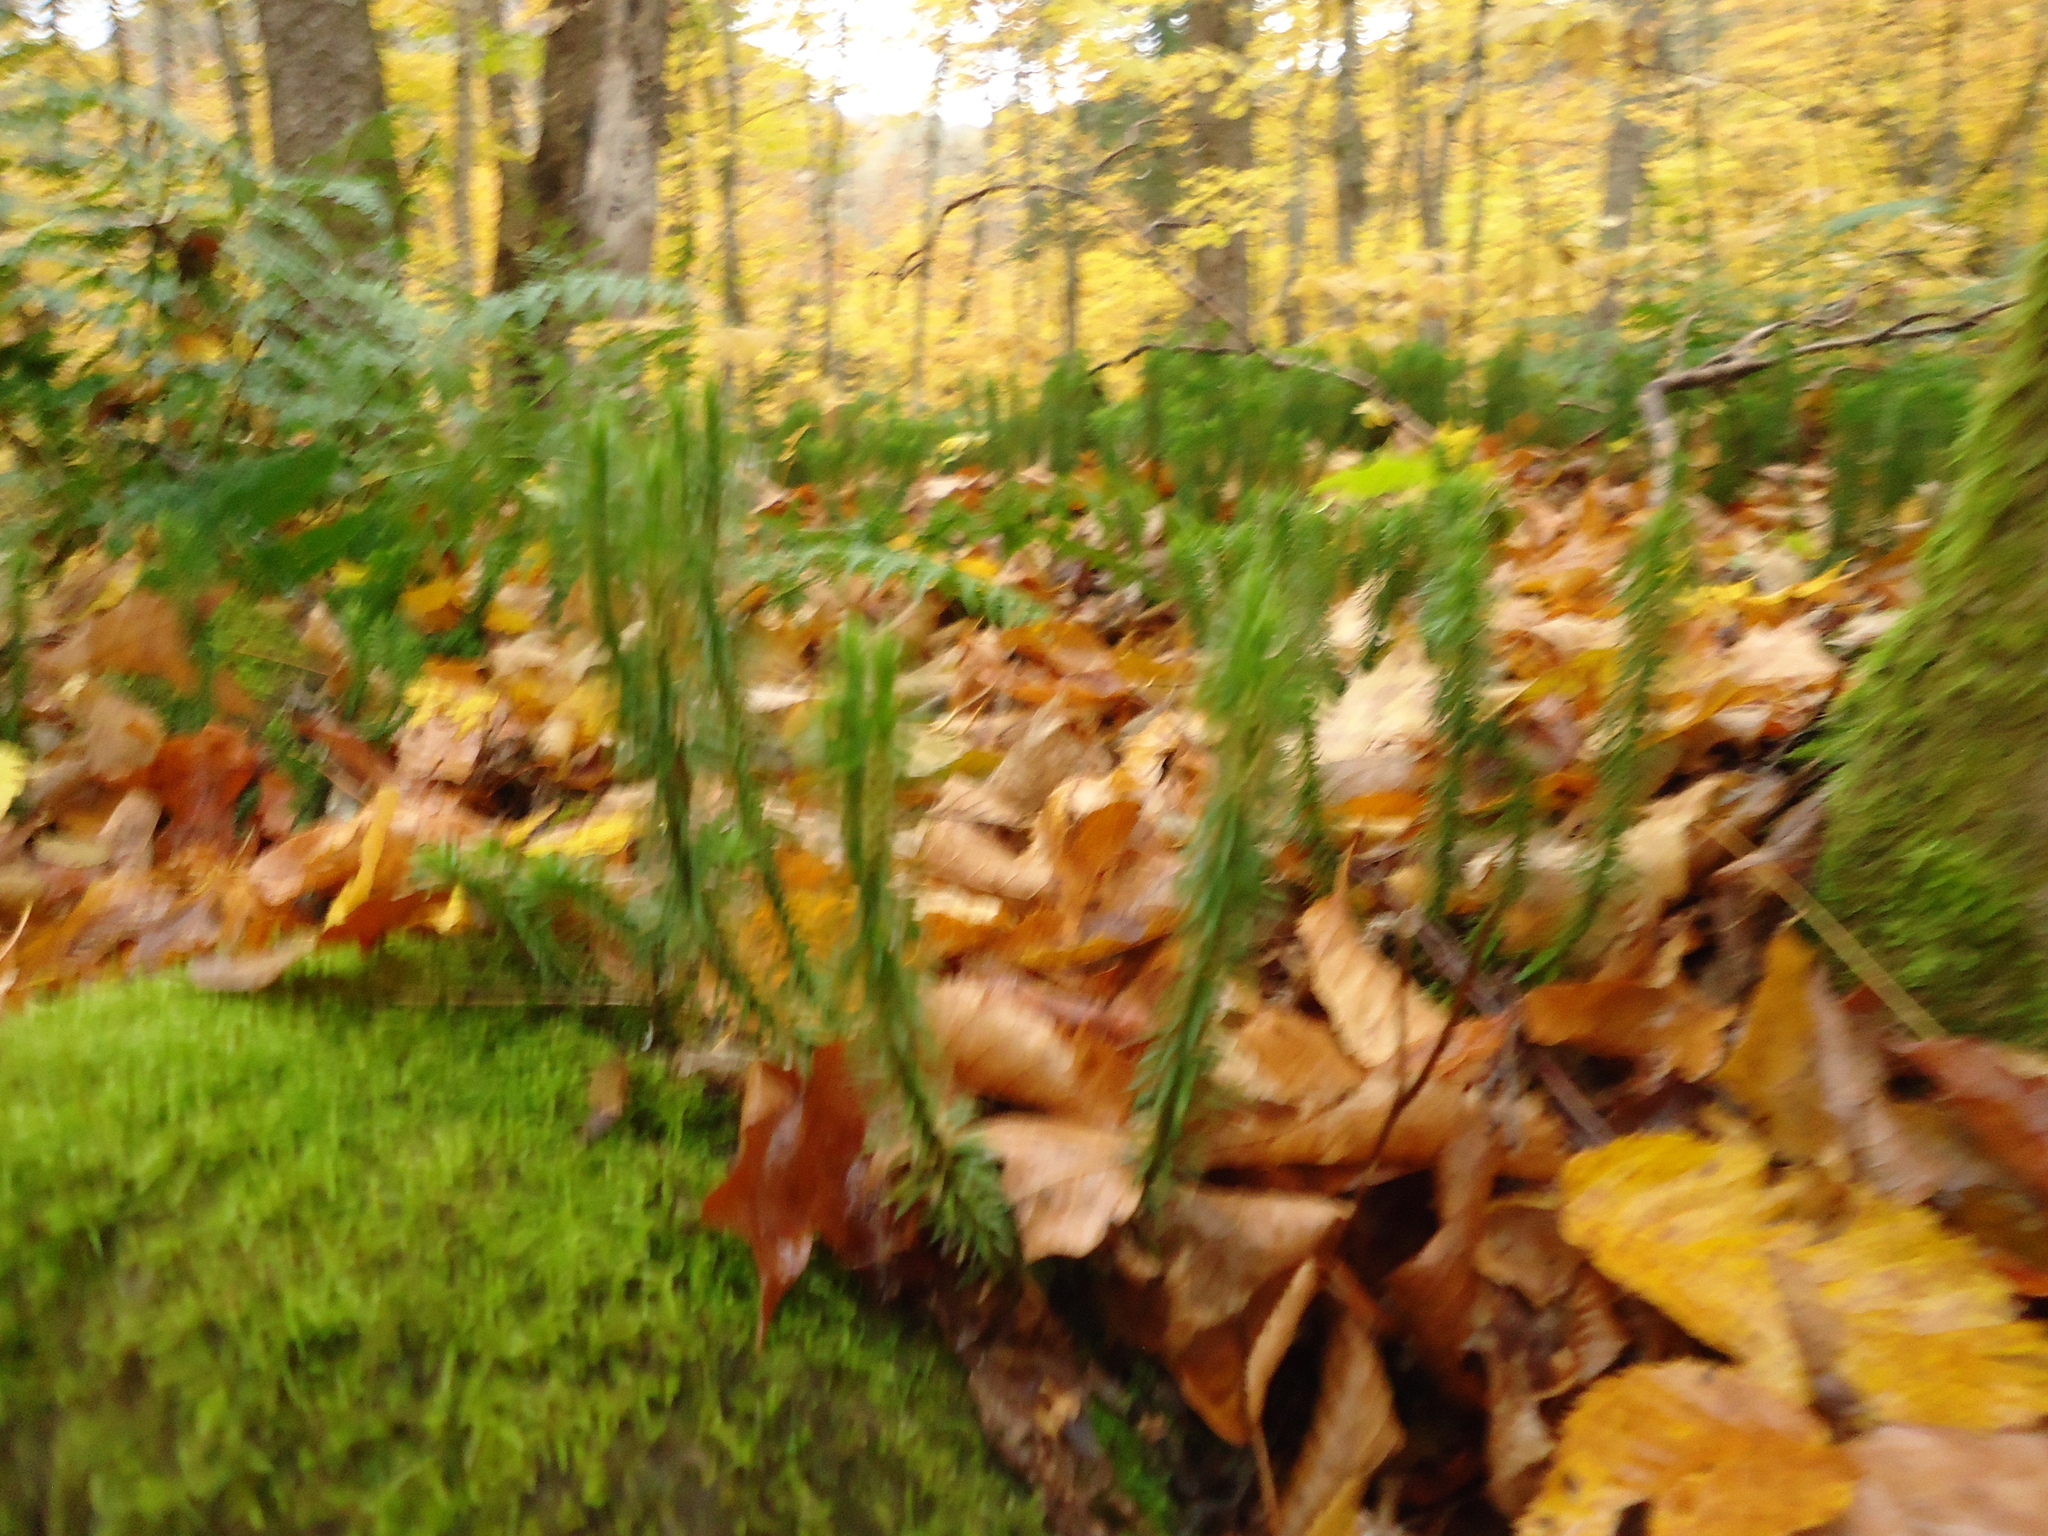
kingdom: Plantae
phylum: Tracheophyta
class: Lycopodiopsida
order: Lycopodiales
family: Lycopodiaceae
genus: Huperzia
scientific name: Huperzia lucidula
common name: Shining clubmoss
